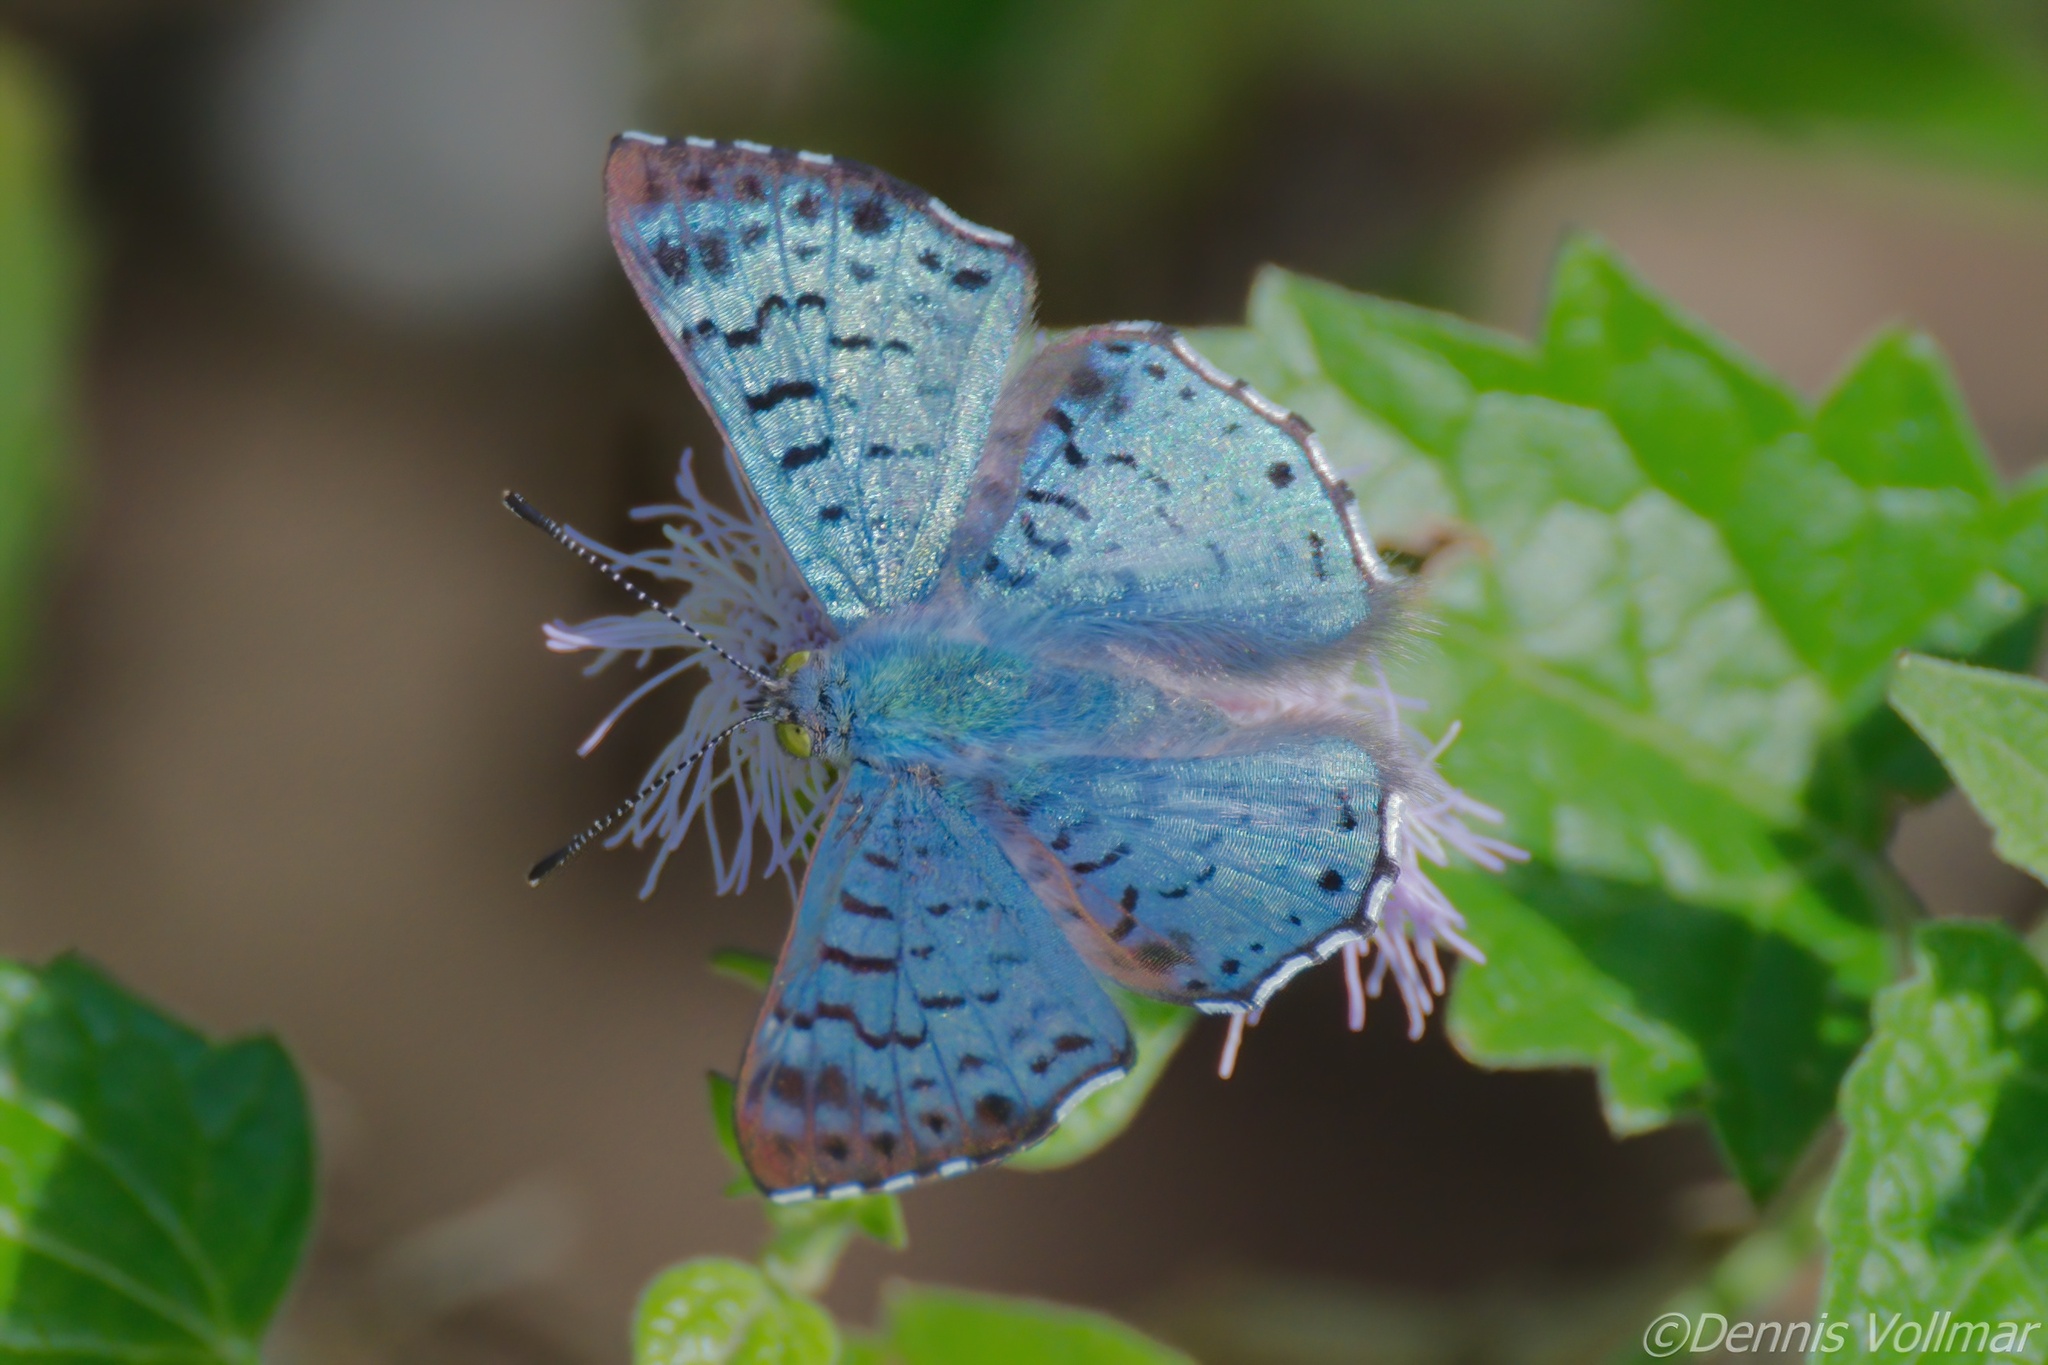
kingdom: Animalia
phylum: Arthropoda
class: Insecta
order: Lepidoptera
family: Riodinidae
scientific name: Riodinidae
